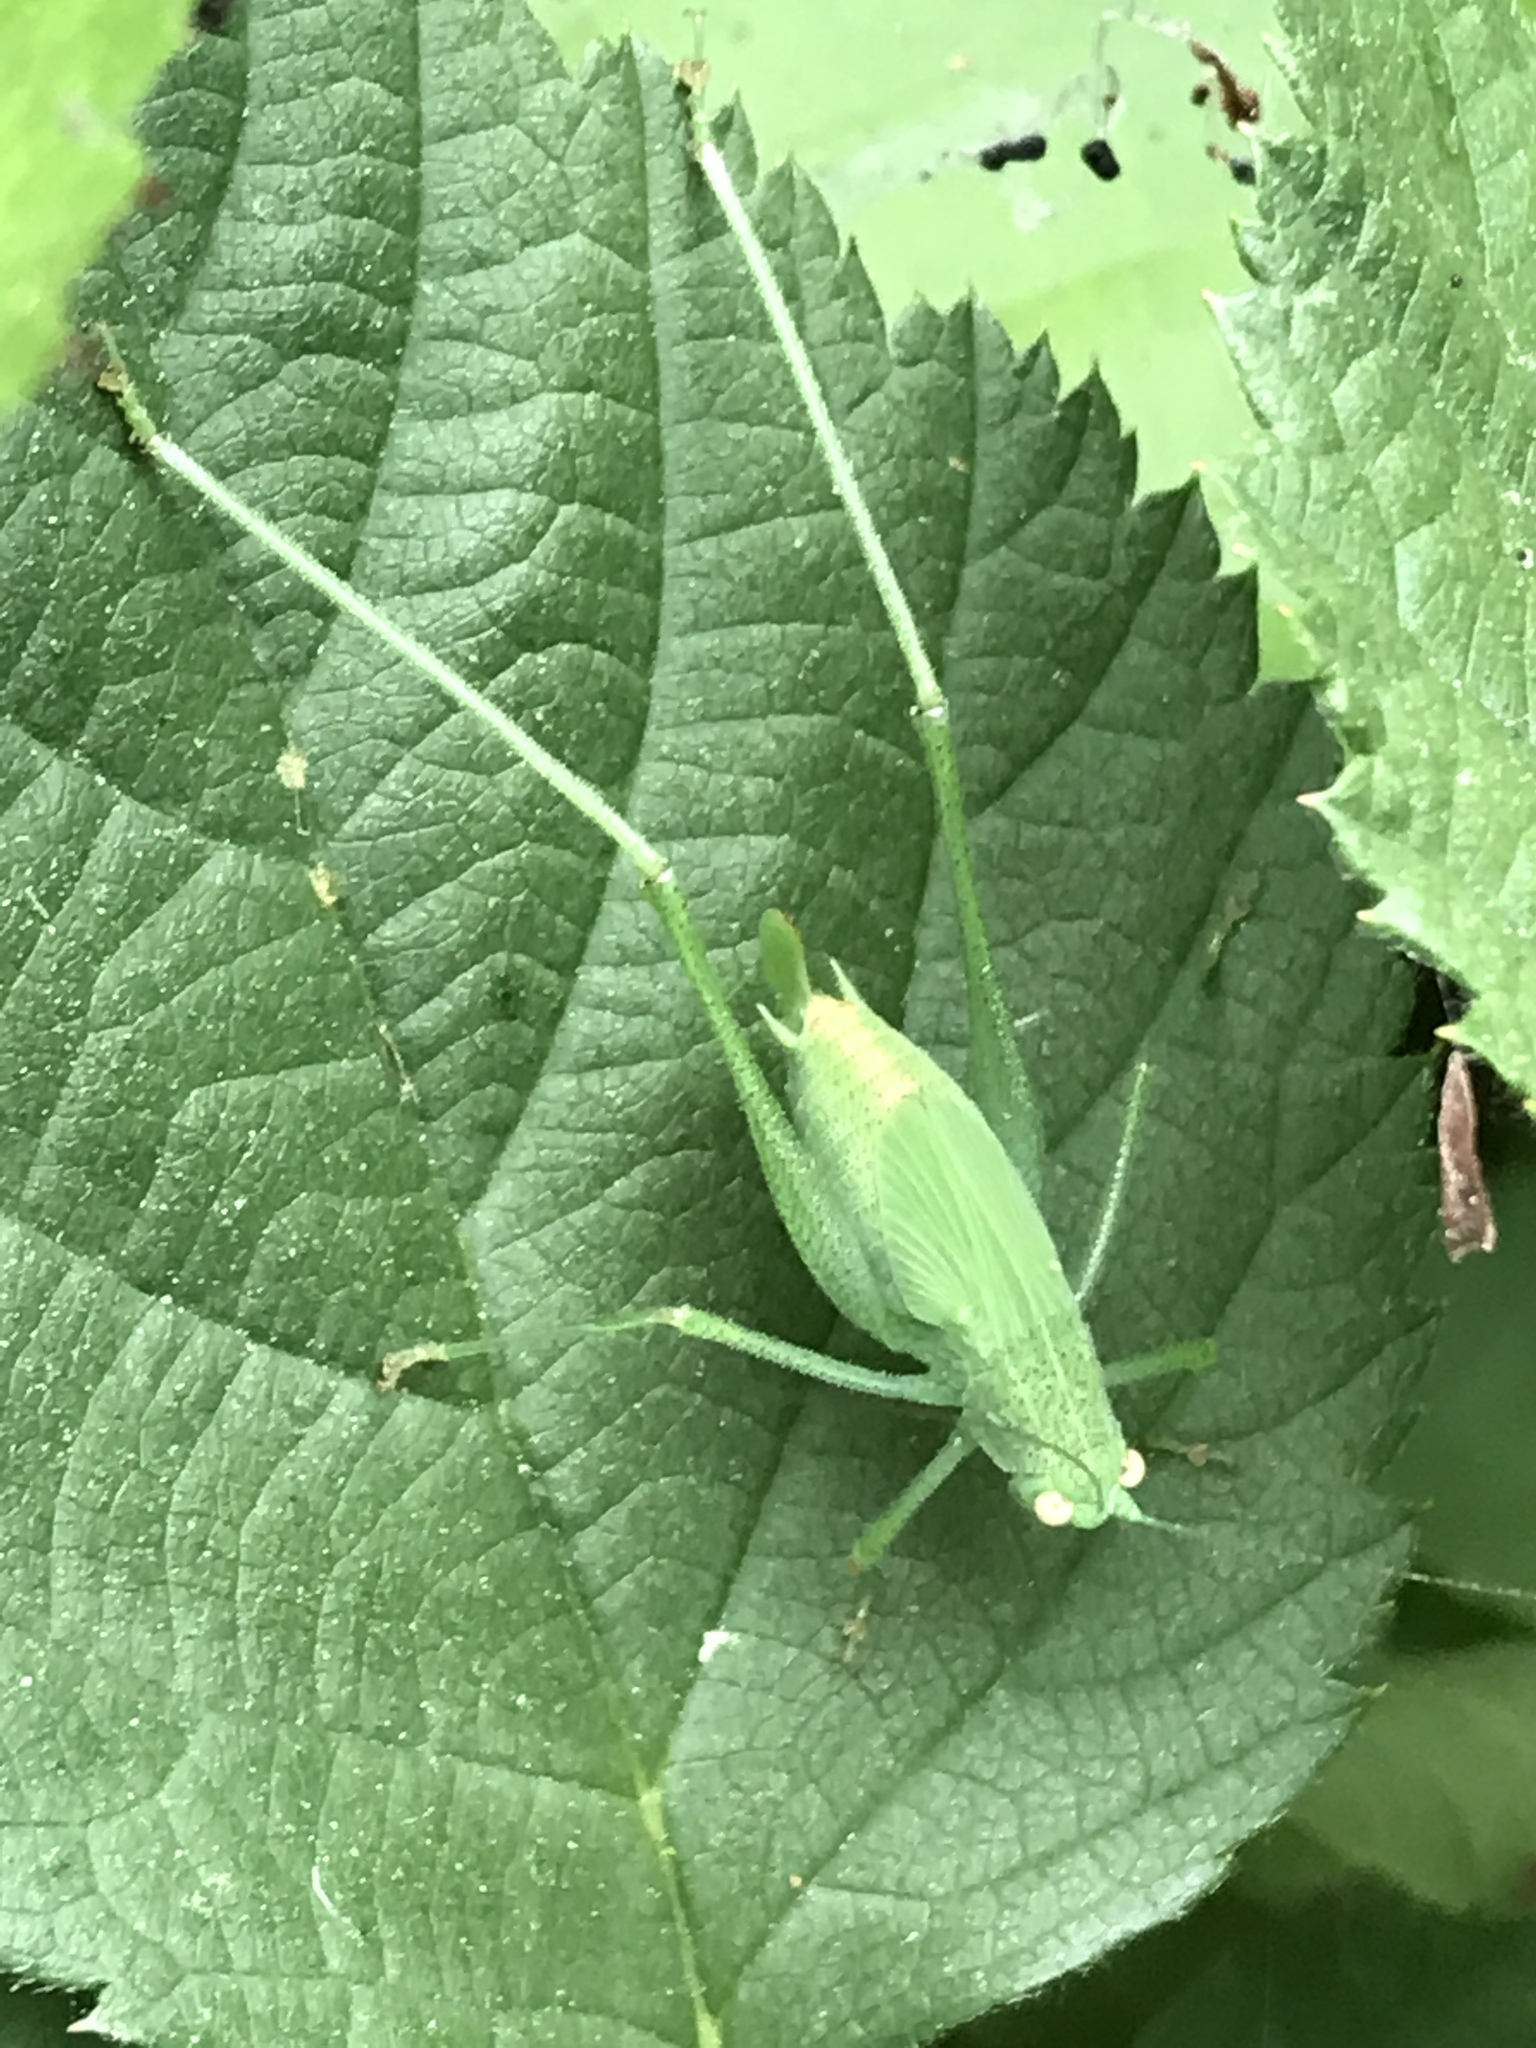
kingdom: Animalia
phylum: Arthropoda
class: Insecta
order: Orthoptera
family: Tettigoniidae
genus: Phaneroptera
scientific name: Phaneroptera nana
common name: Southern sickle bush-cricket
